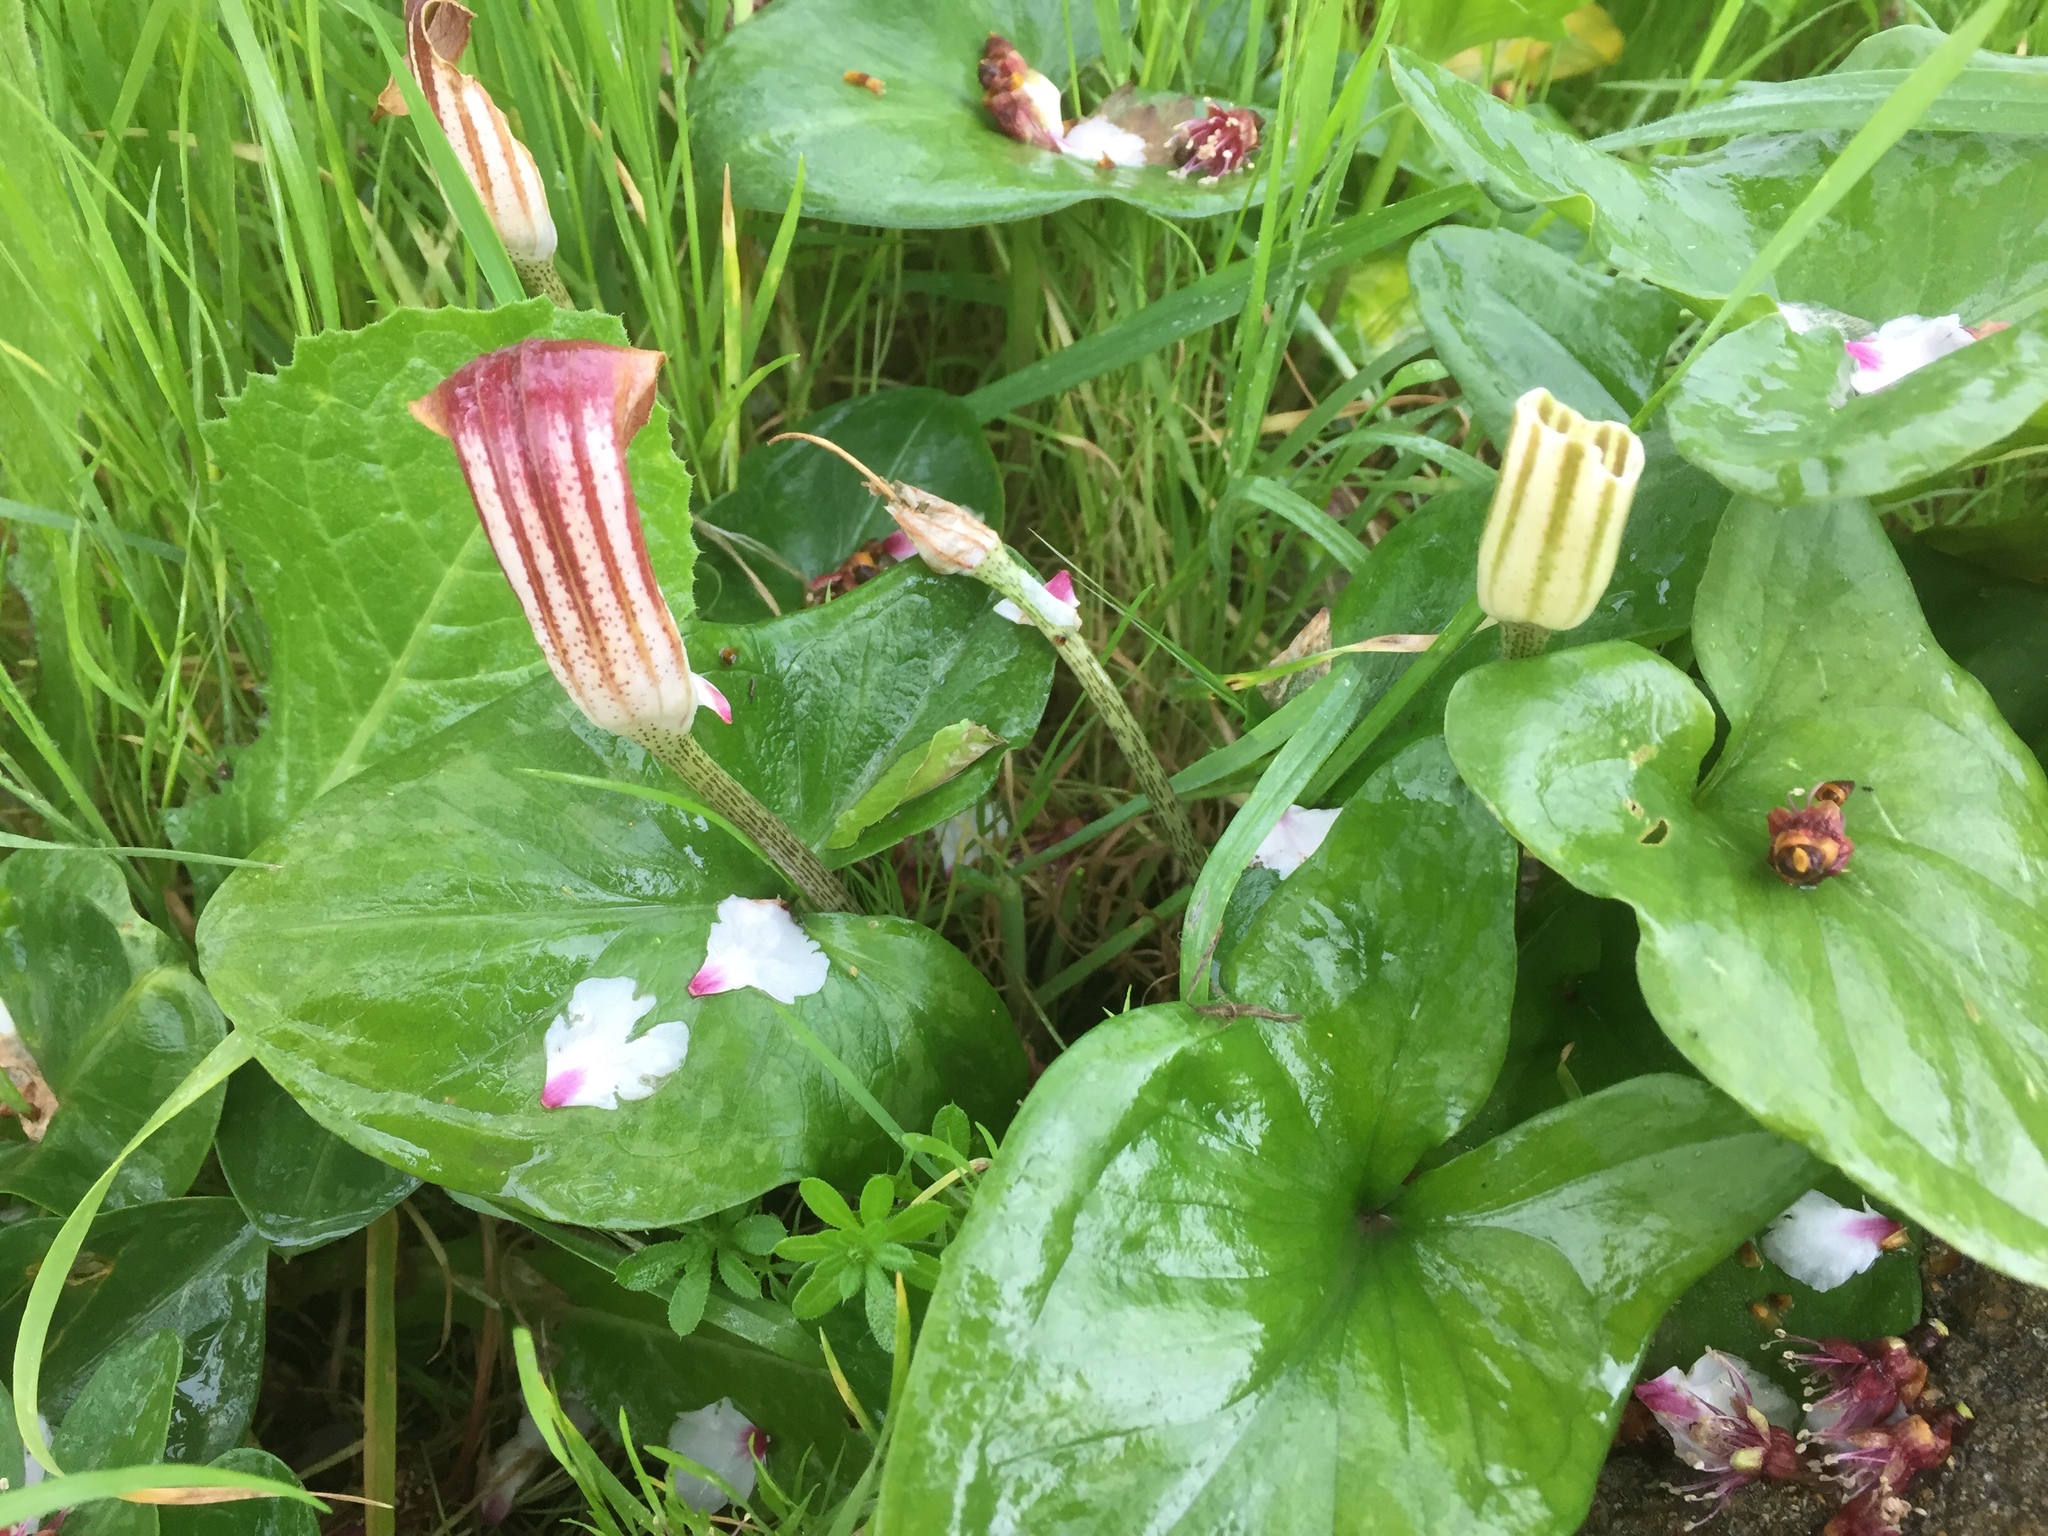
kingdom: Plantae
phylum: Tracheophyta
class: Liliopsida
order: Alismatales
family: Araceae
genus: Arisarum
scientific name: Arisarum vulgare
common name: Common arisarum
